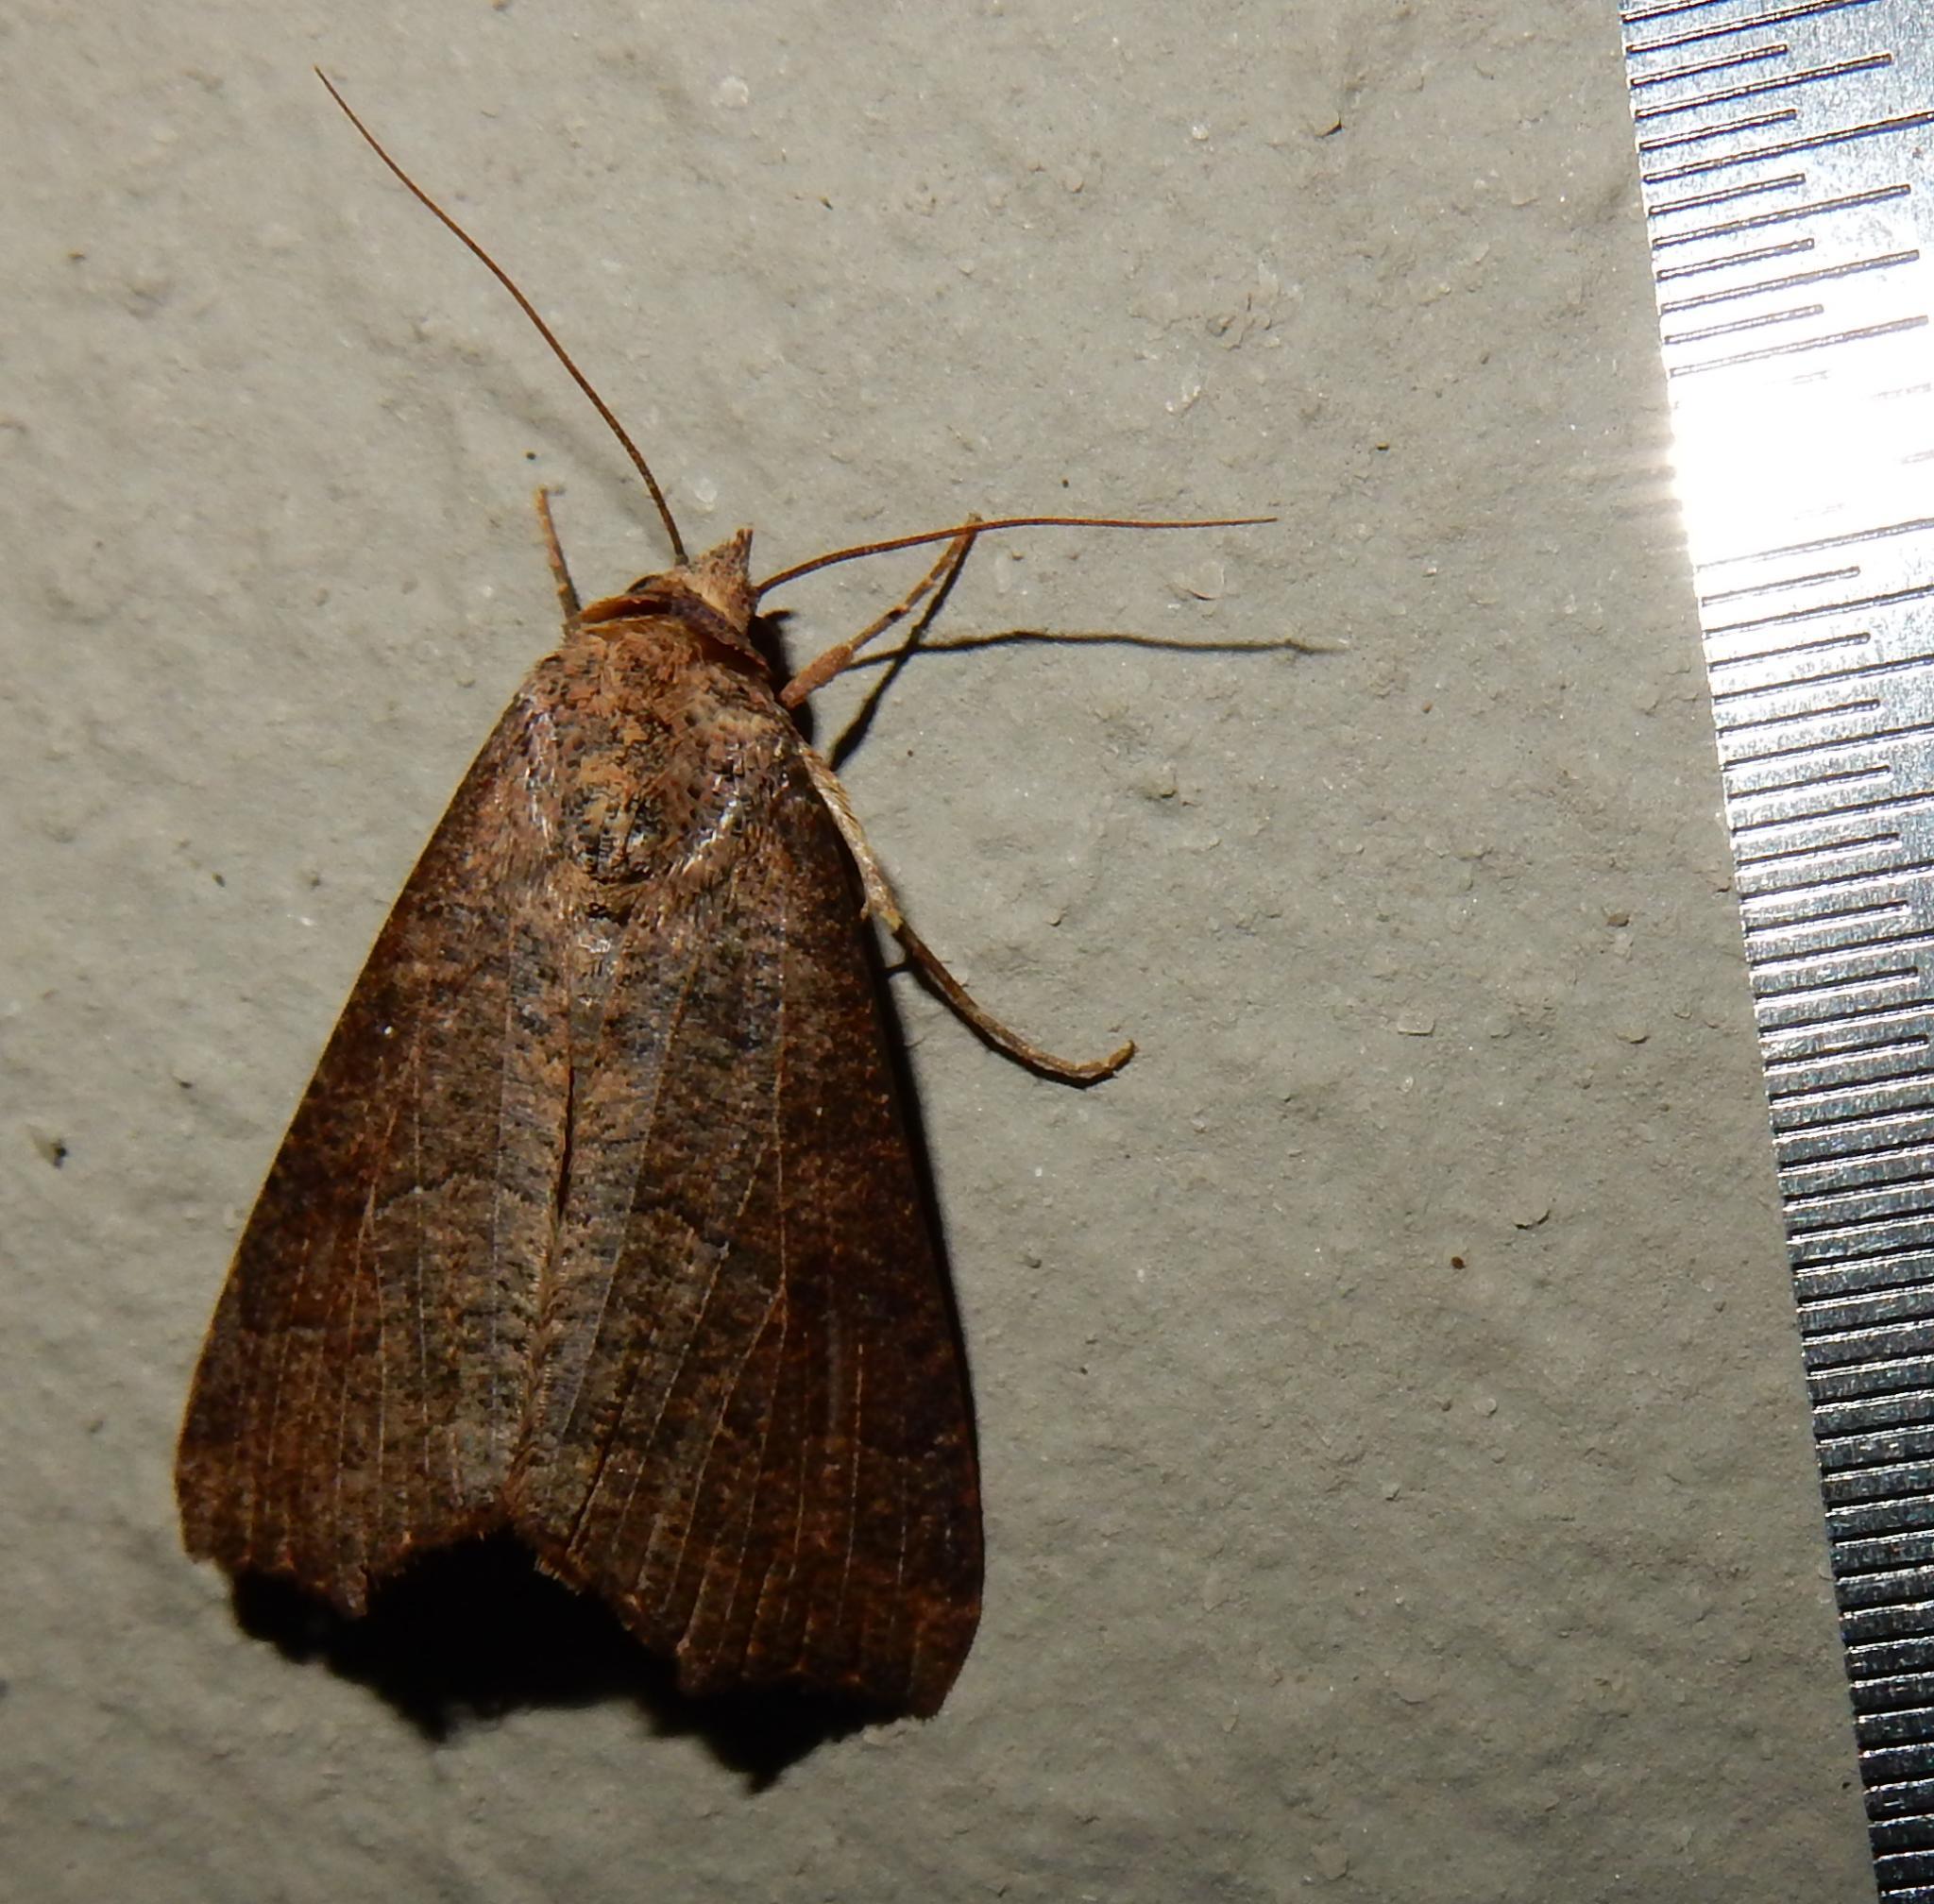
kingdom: Animalia
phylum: Arthropoda
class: Insecta
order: Lepidoptera
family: Erebidae
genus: Anomis
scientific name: Anomis sabulifera
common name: Angled gem
